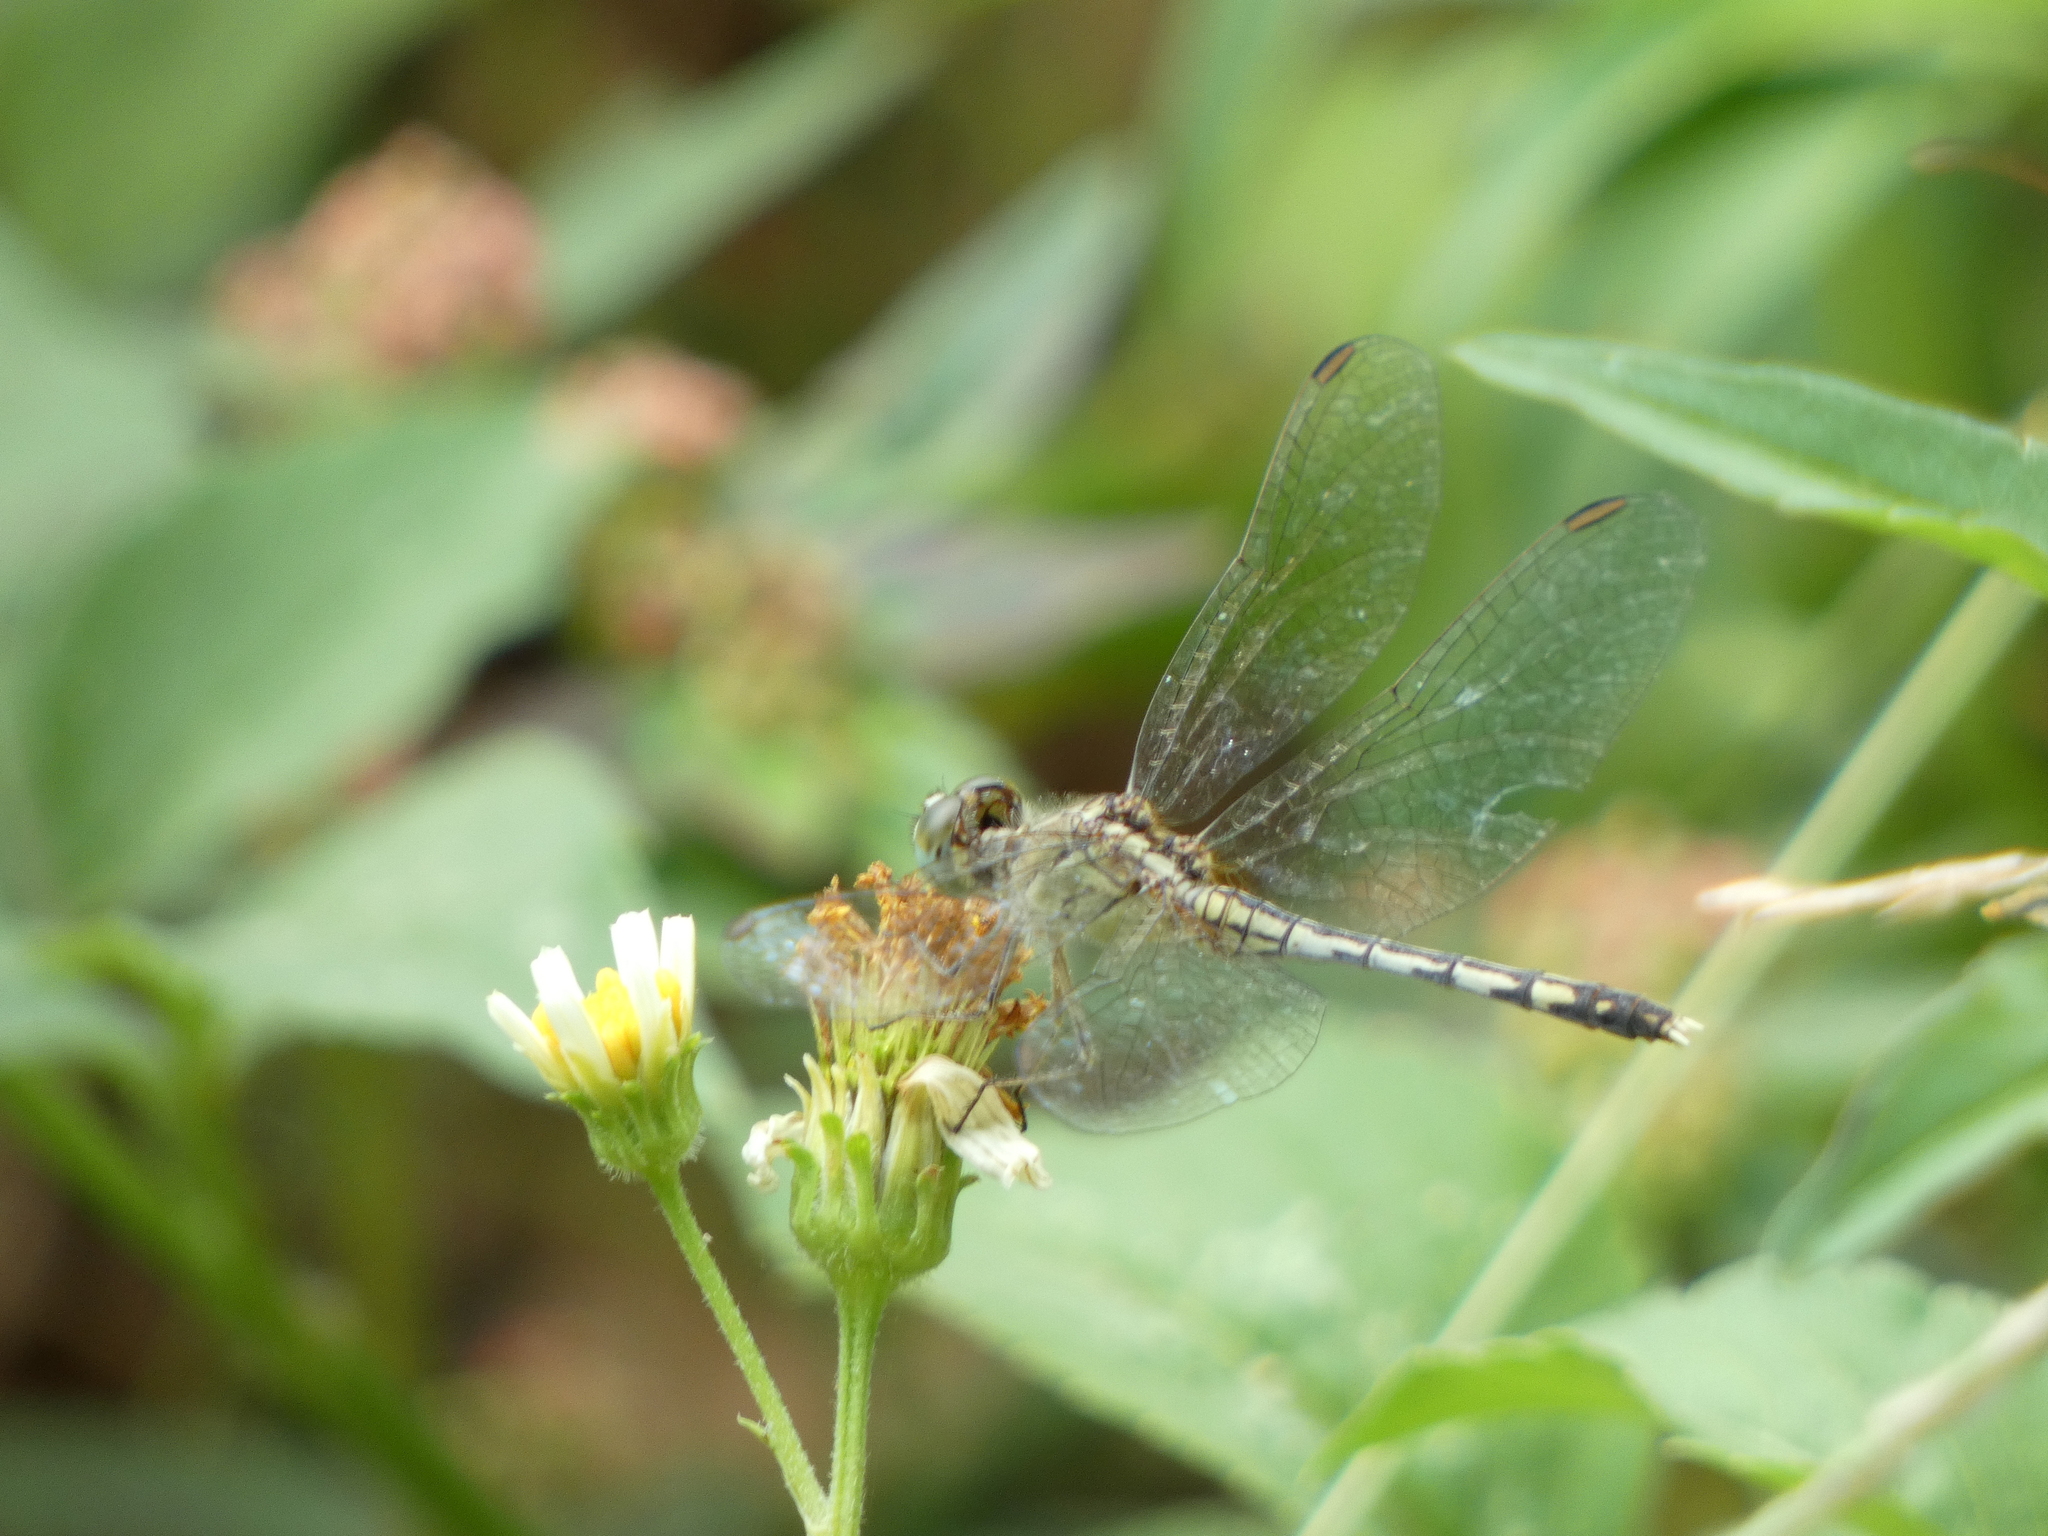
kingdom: Animalia
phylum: Arthropoda
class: Insecta
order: Odonata
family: Libellulidae
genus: Diplacodes
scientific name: Diplacodes trivialis
